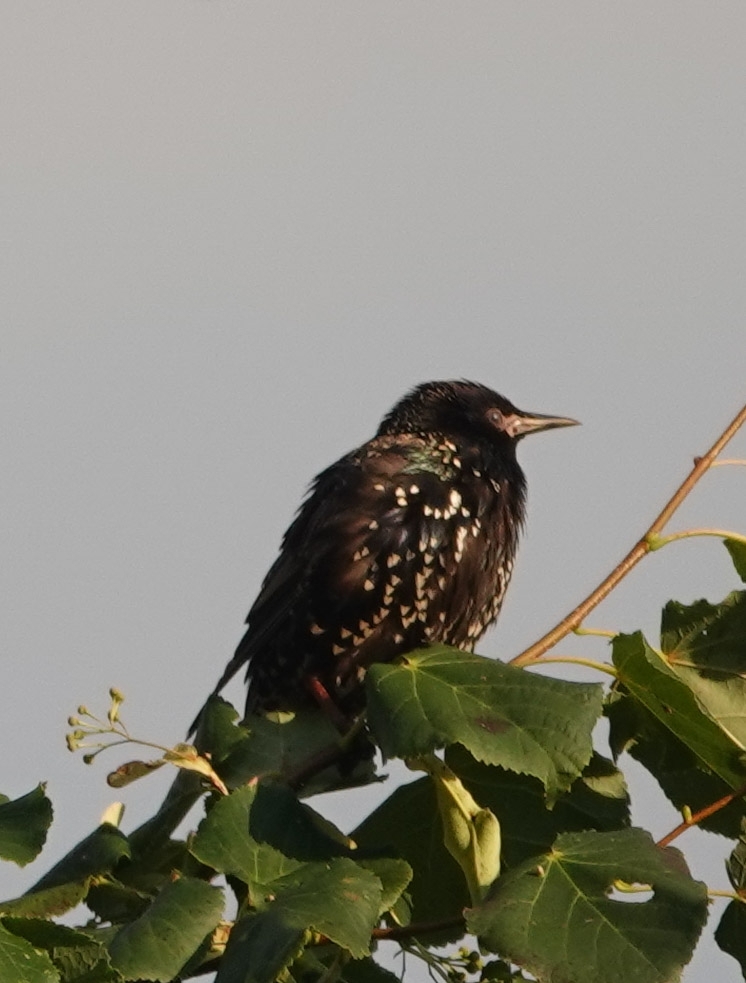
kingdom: Animalia
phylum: Chordata
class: Aves
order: Passeriformes
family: Sturnidae
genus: Sturnus
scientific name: Sturnus vulgaris
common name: Common starling
